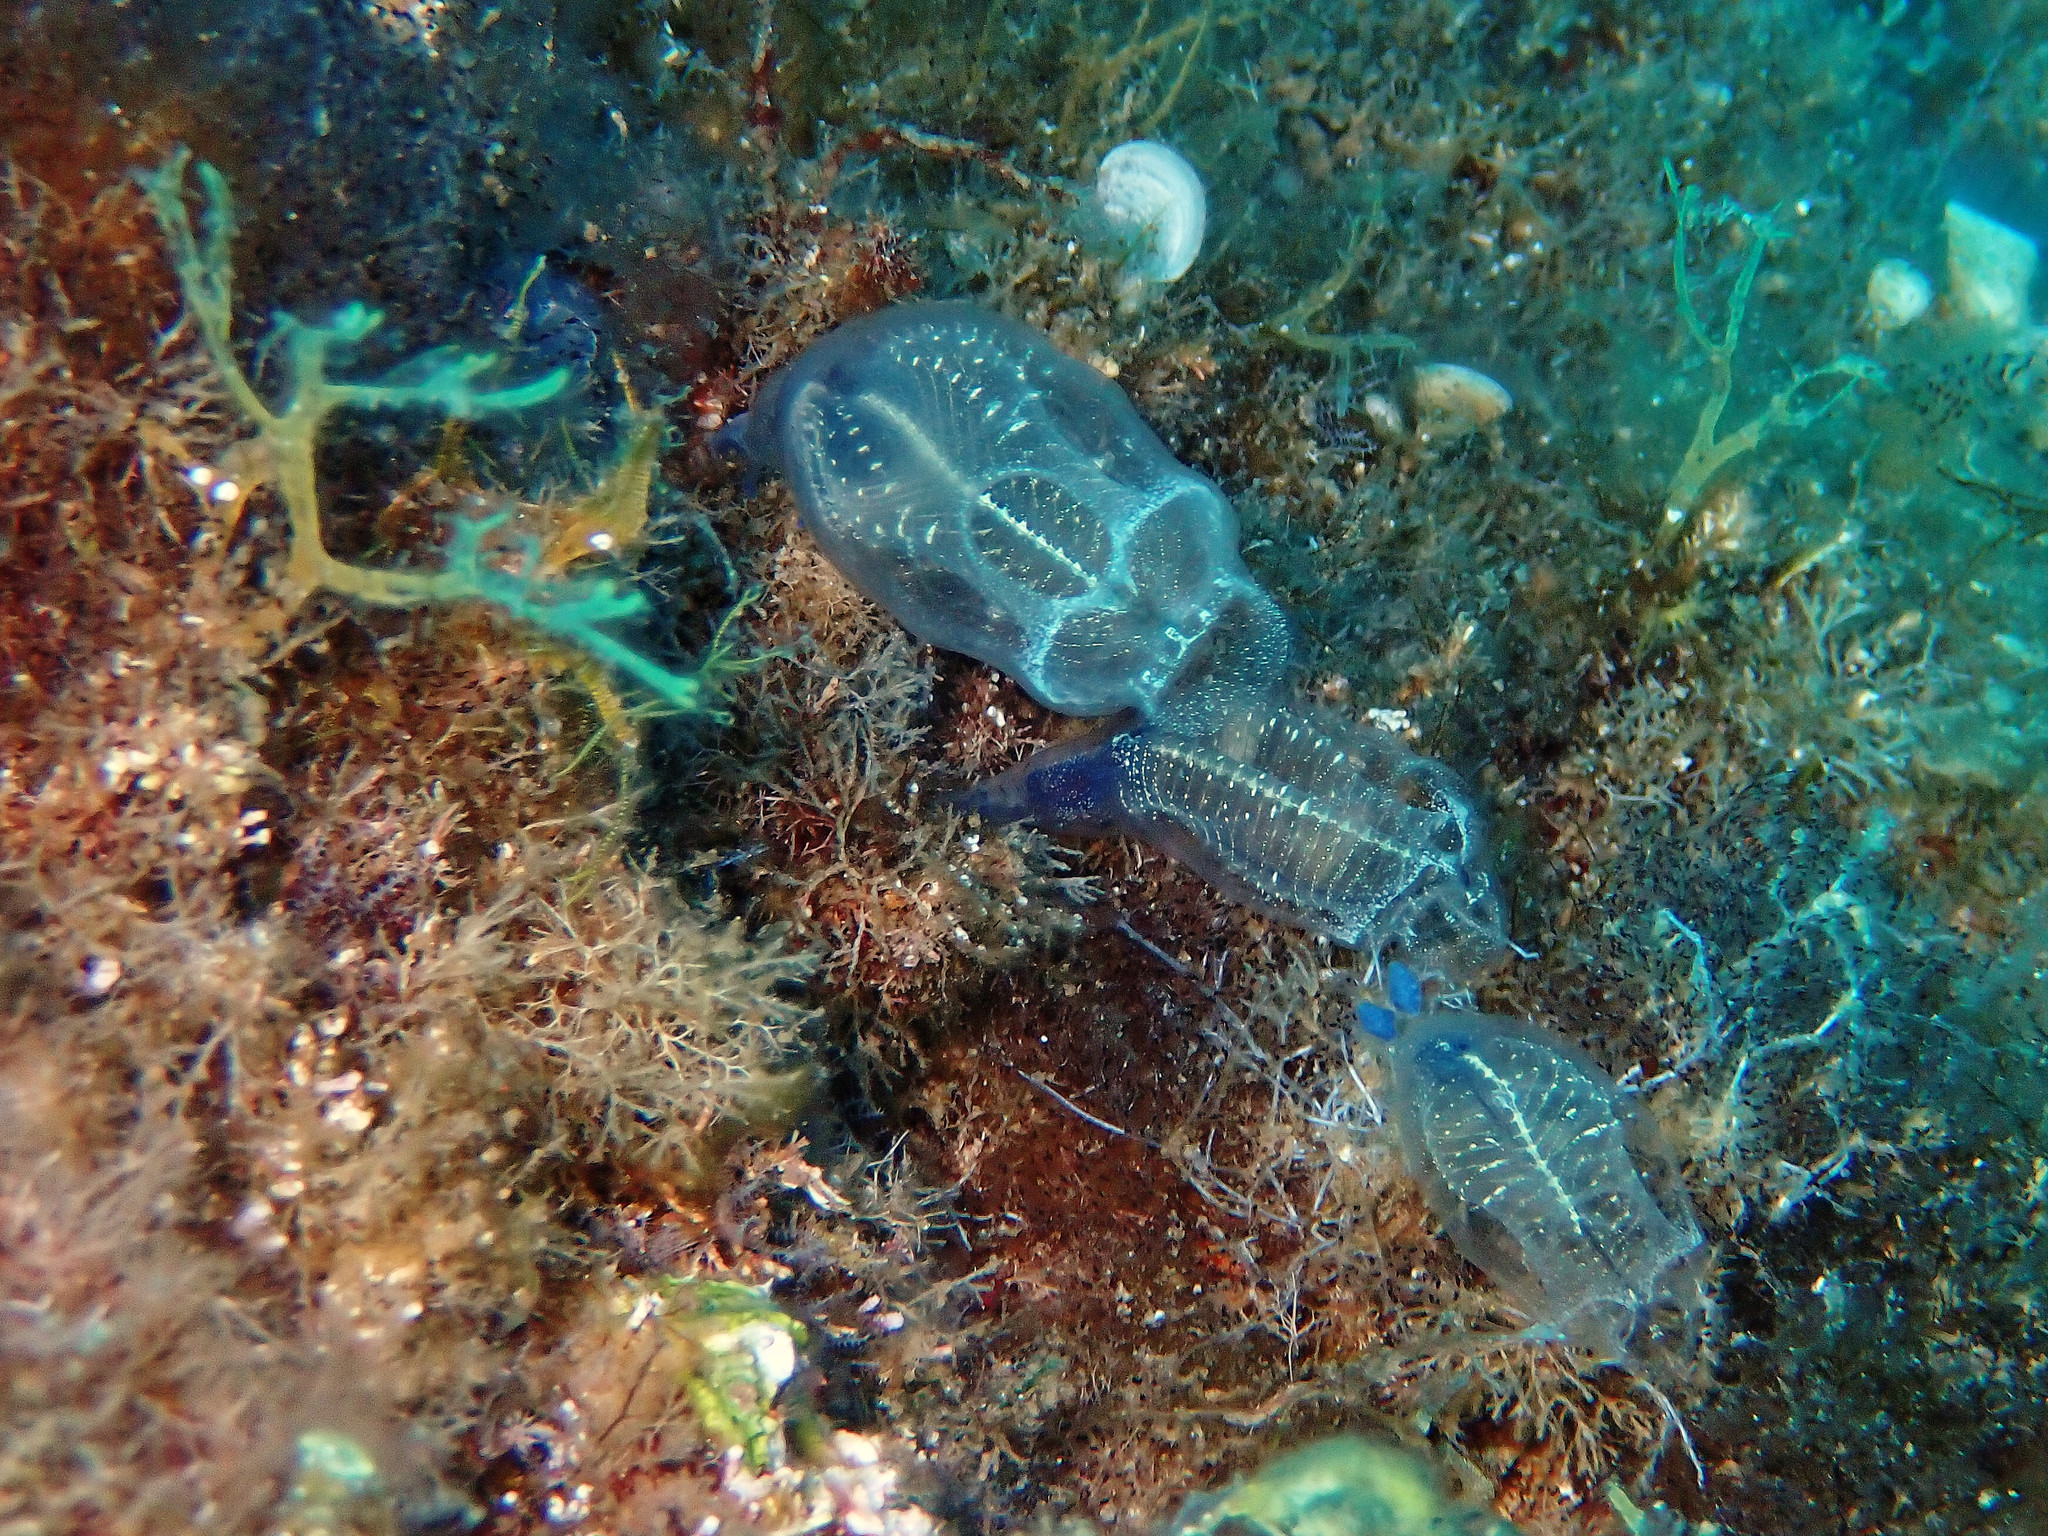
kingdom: Animalia
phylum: Chordata
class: Ascidiacea
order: Aplousobranchia
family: Clavelinidae
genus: Clavelina
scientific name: Clavelina dellavallei
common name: Bluestriped light bulb tunicate
